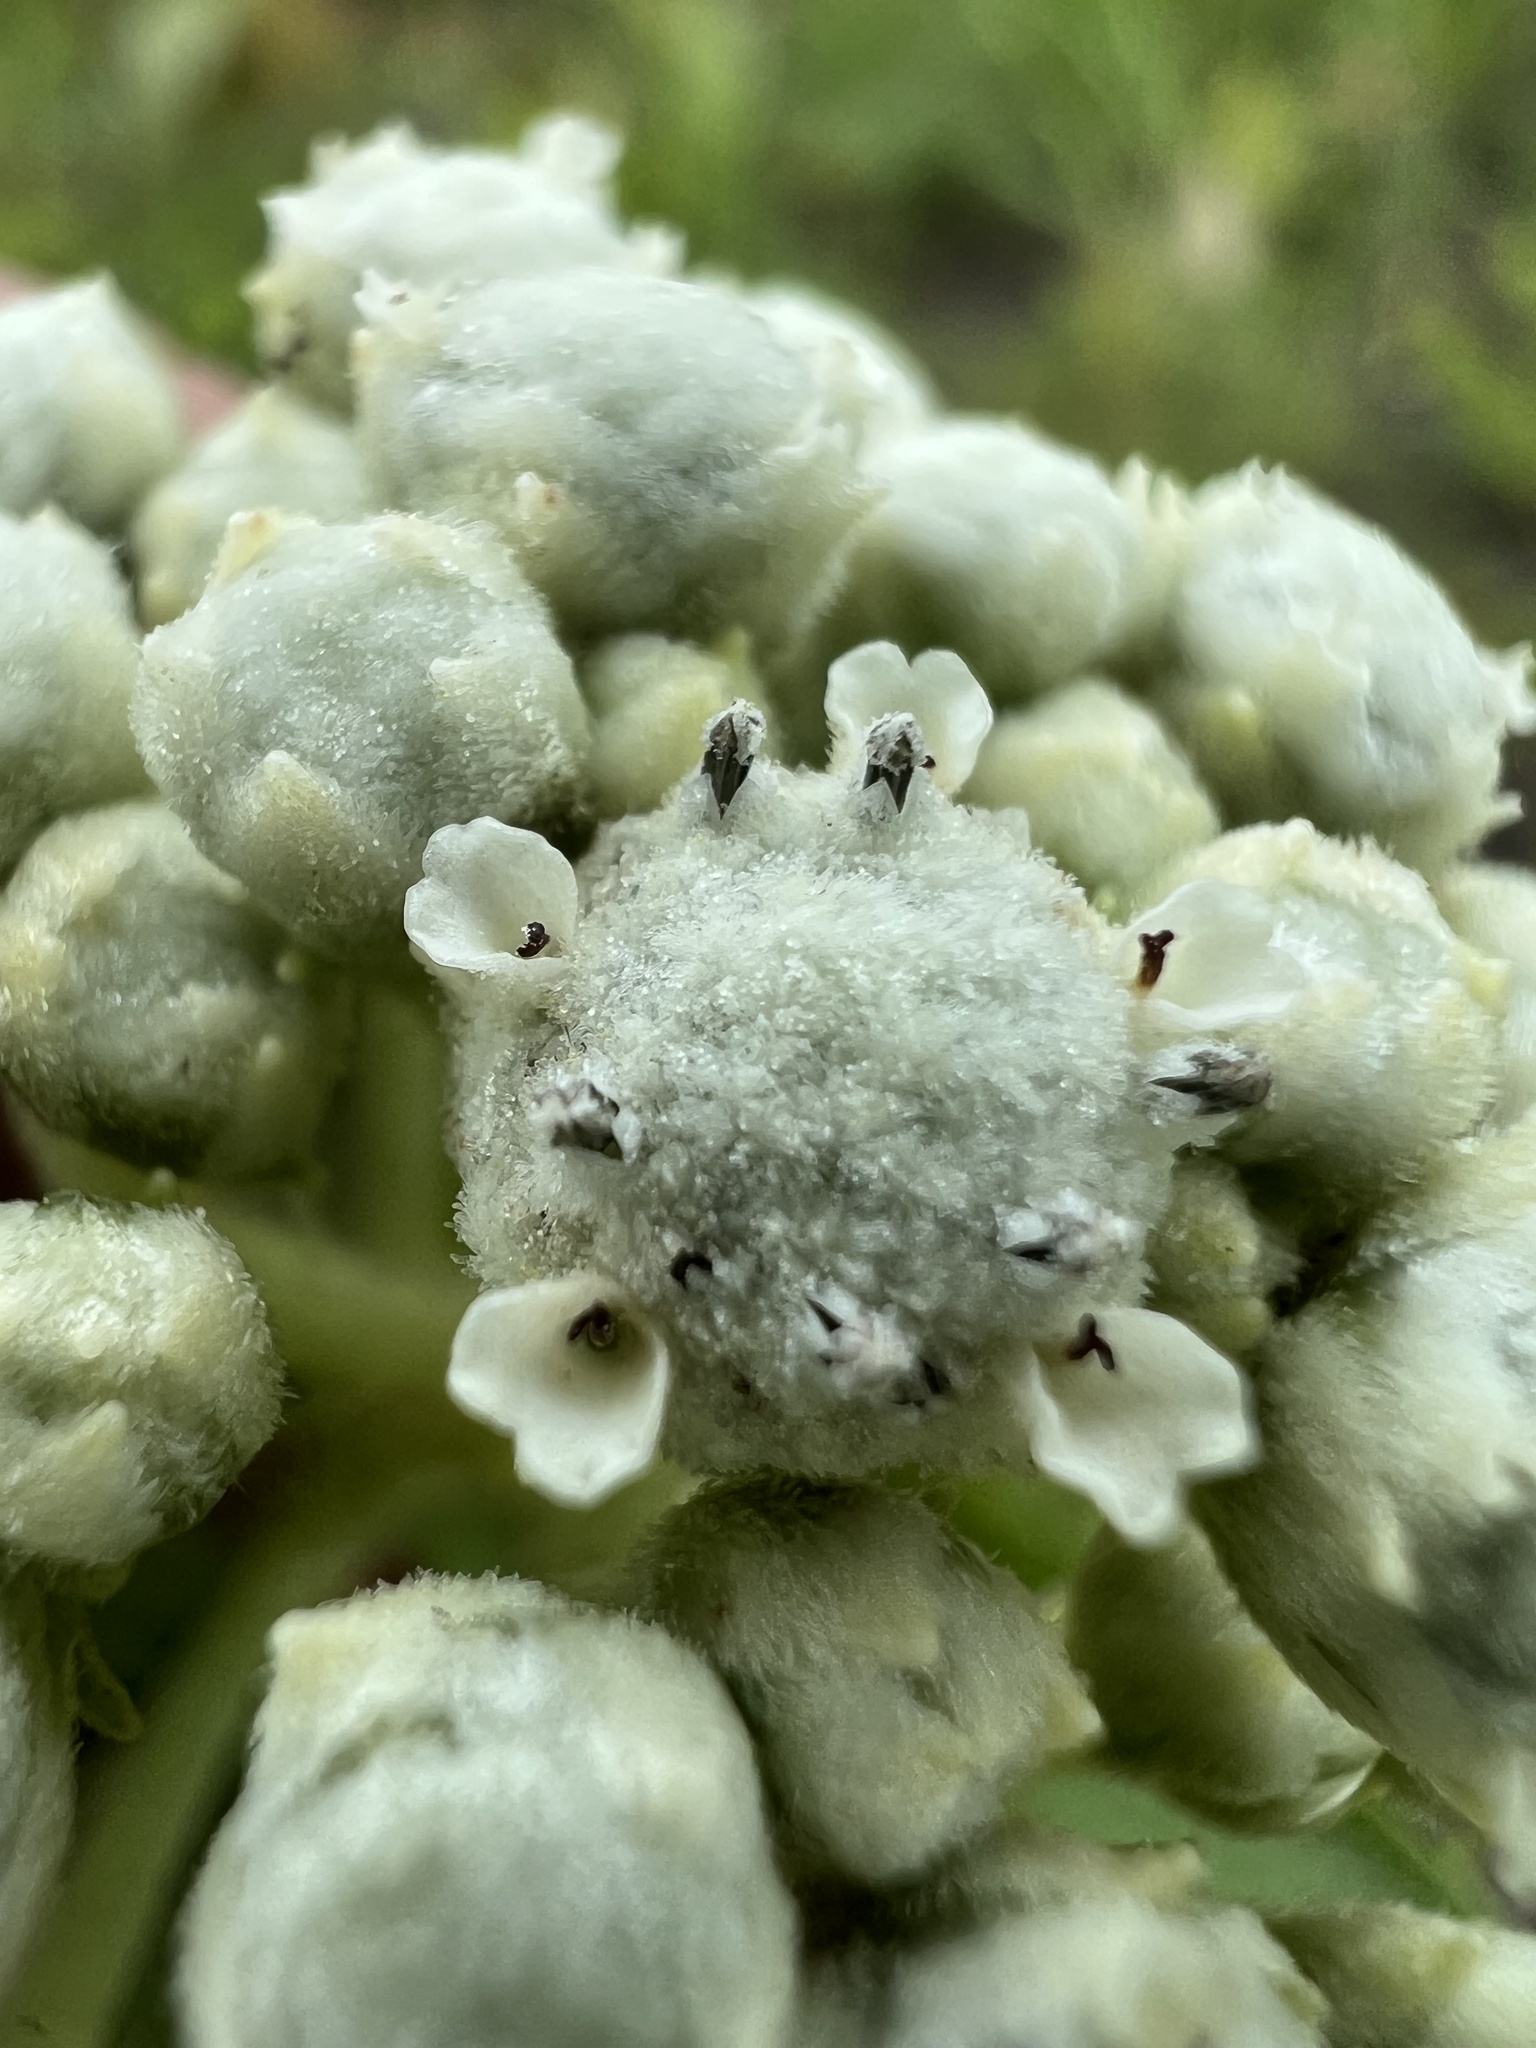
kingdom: Plantae
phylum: Tracheophyta
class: Magnoliopsida
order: Asterales
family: Asteraceae
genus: Parthenium
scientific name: Parthenium integrifolium
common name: American feverfew
